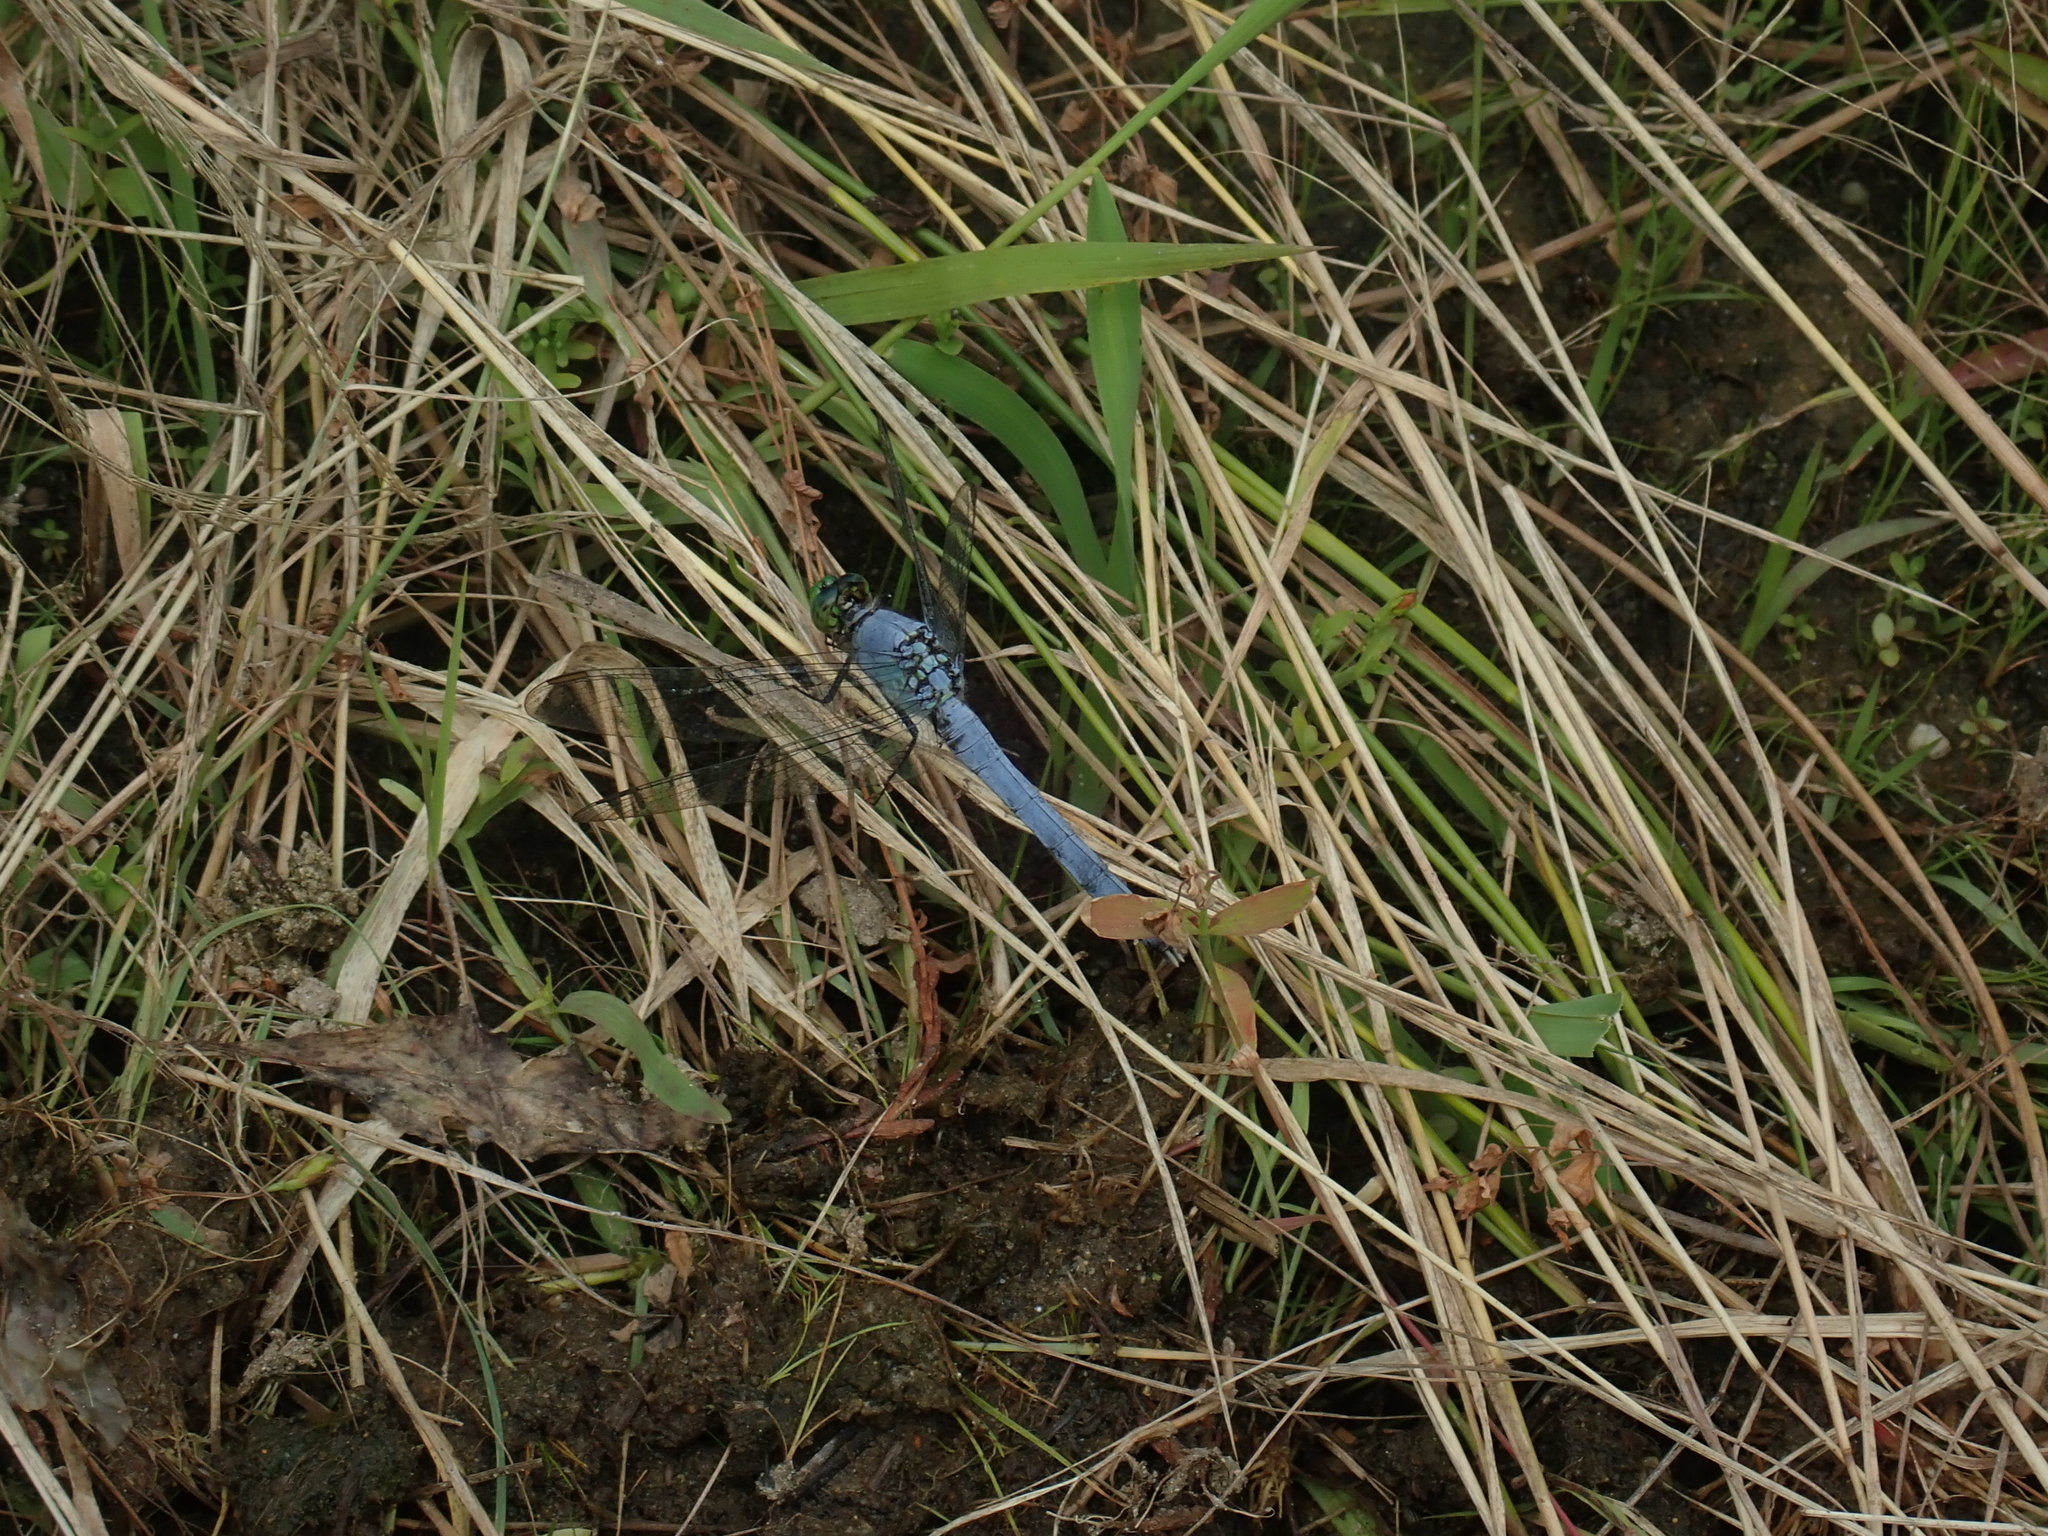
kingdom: Animalia
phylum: Arthropoda
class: Insecta
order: Odonata
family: Libellulidae
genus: Erythemis
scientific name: Erythemis simplicicollis
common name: Eastern pondhawk
